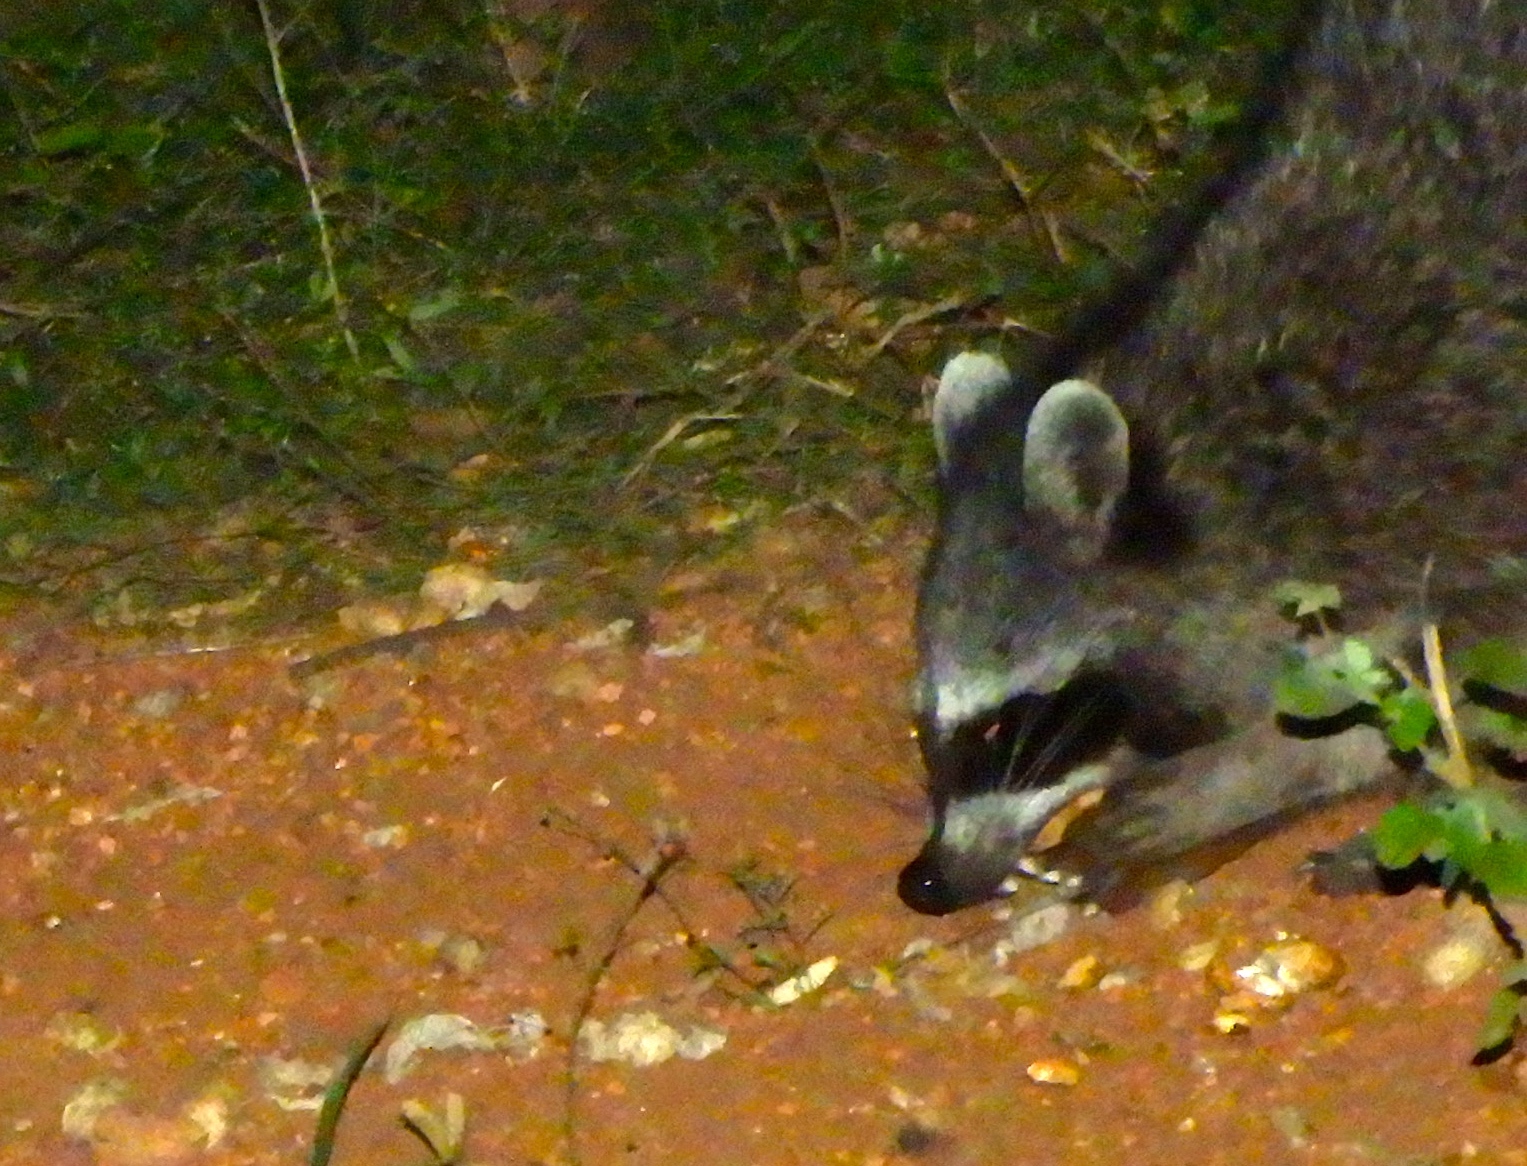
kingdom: Animalia
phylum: Chordata
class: Mammalia
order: Carnivora
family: Procyonidae
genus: Procyon
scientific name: Procyon lotor
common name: Raccoon
